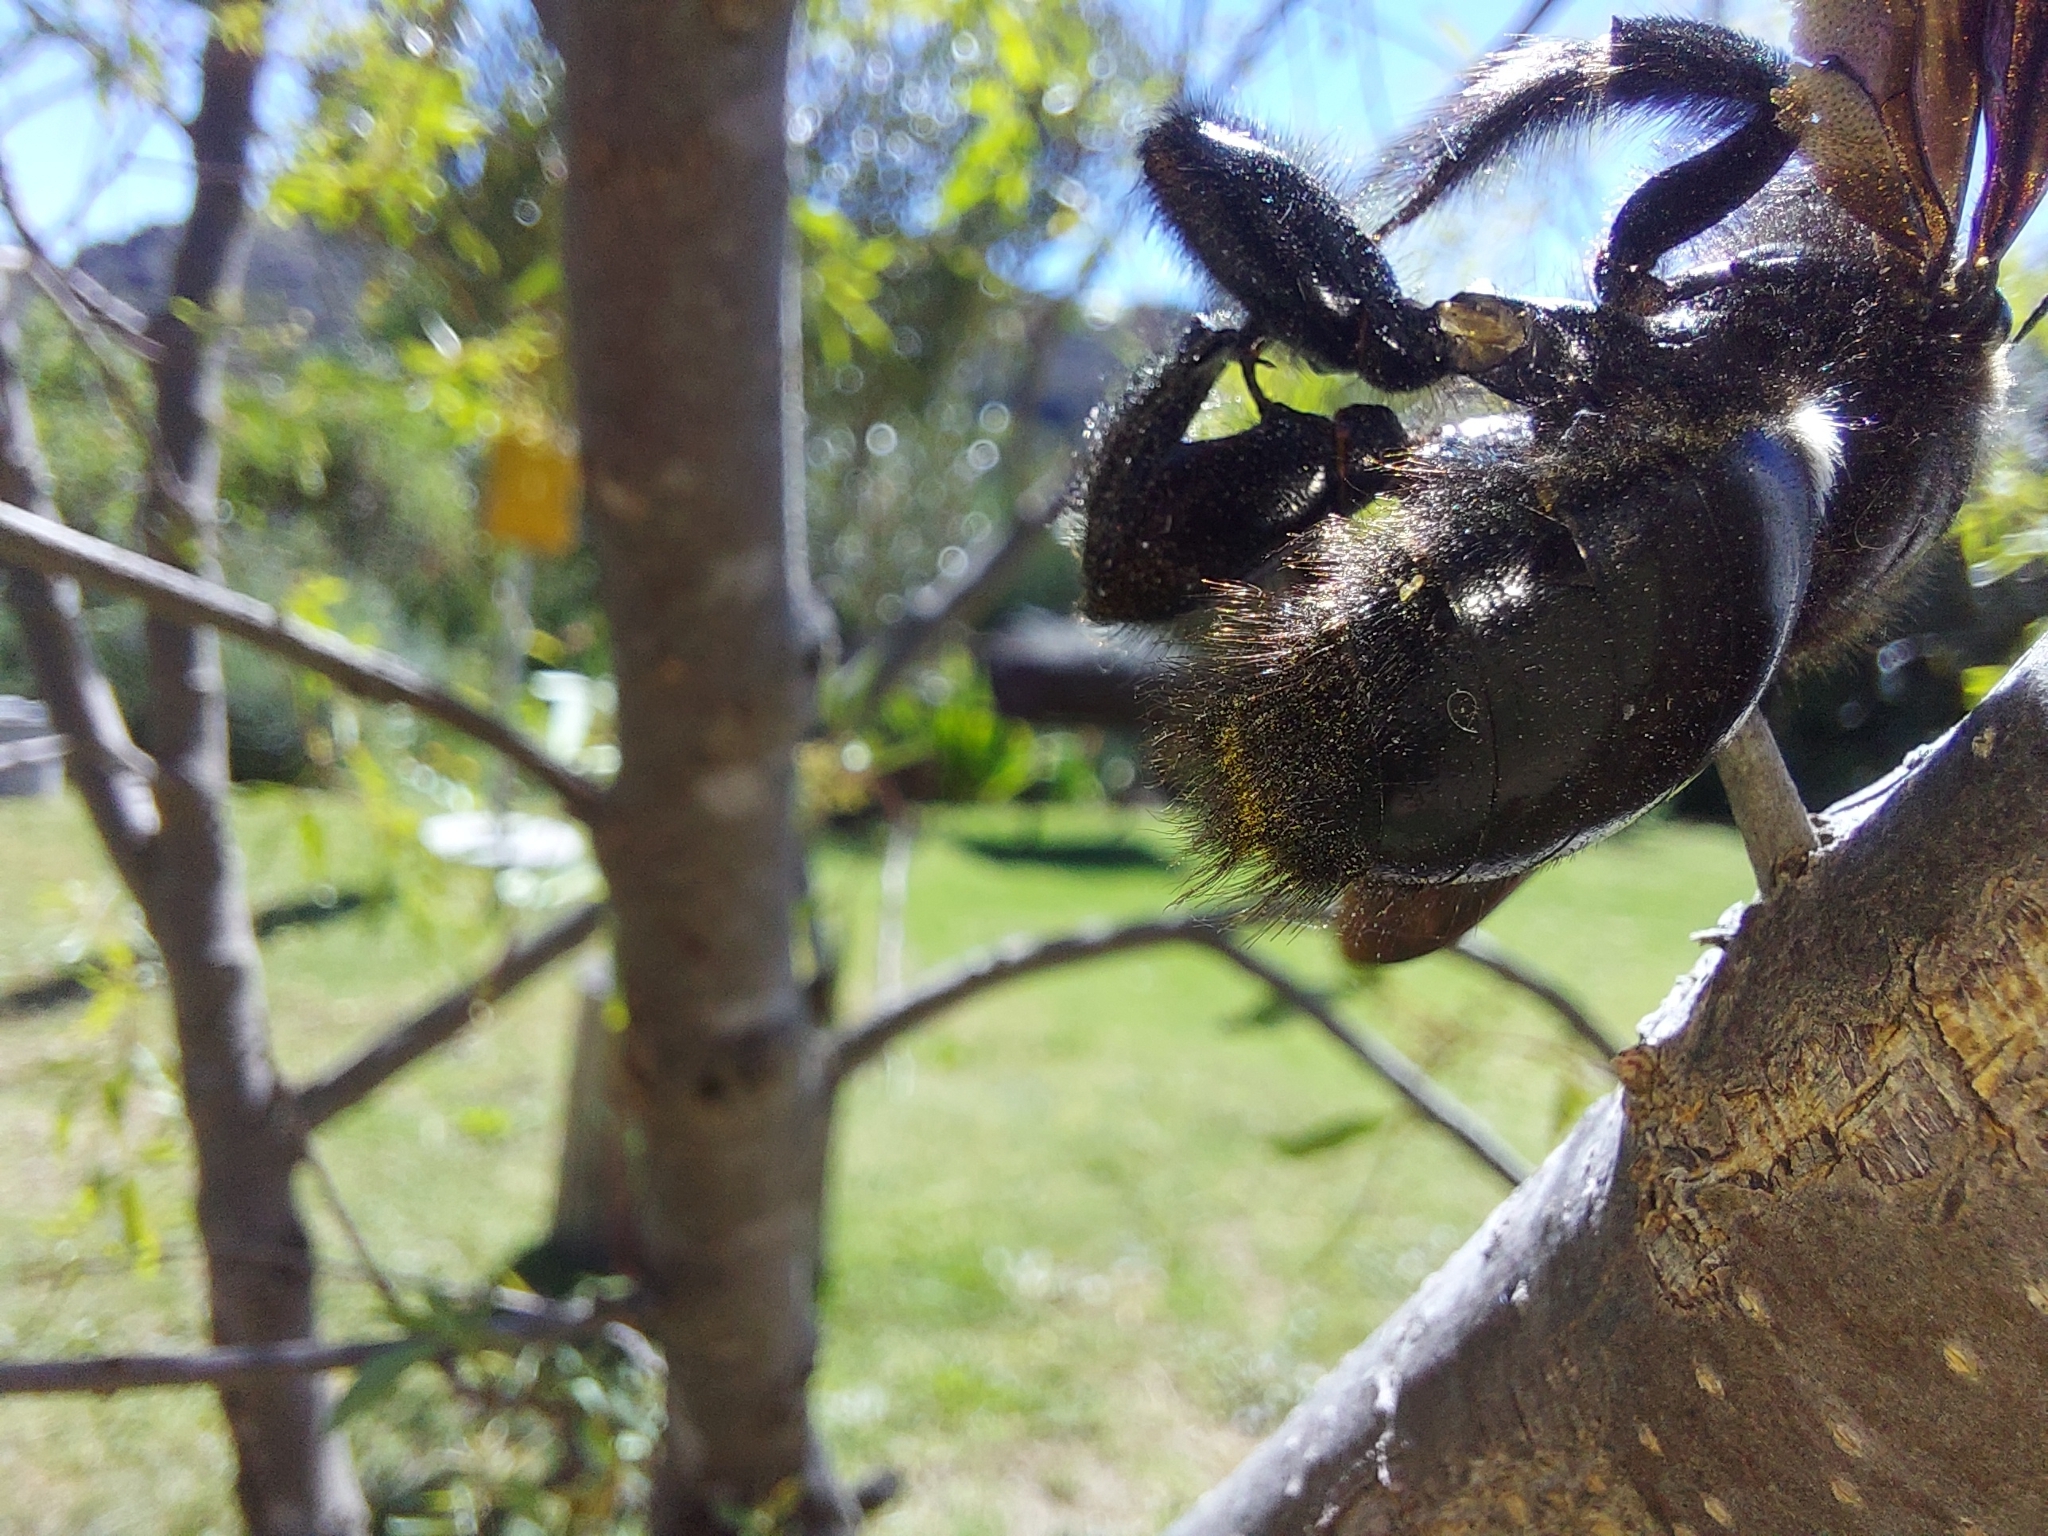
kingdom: Animalia
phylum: Chordata
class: Aves
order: Passeriformes
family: Laniidae
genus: Lanius
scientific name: Lanius collaris
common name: Southern fiscal
